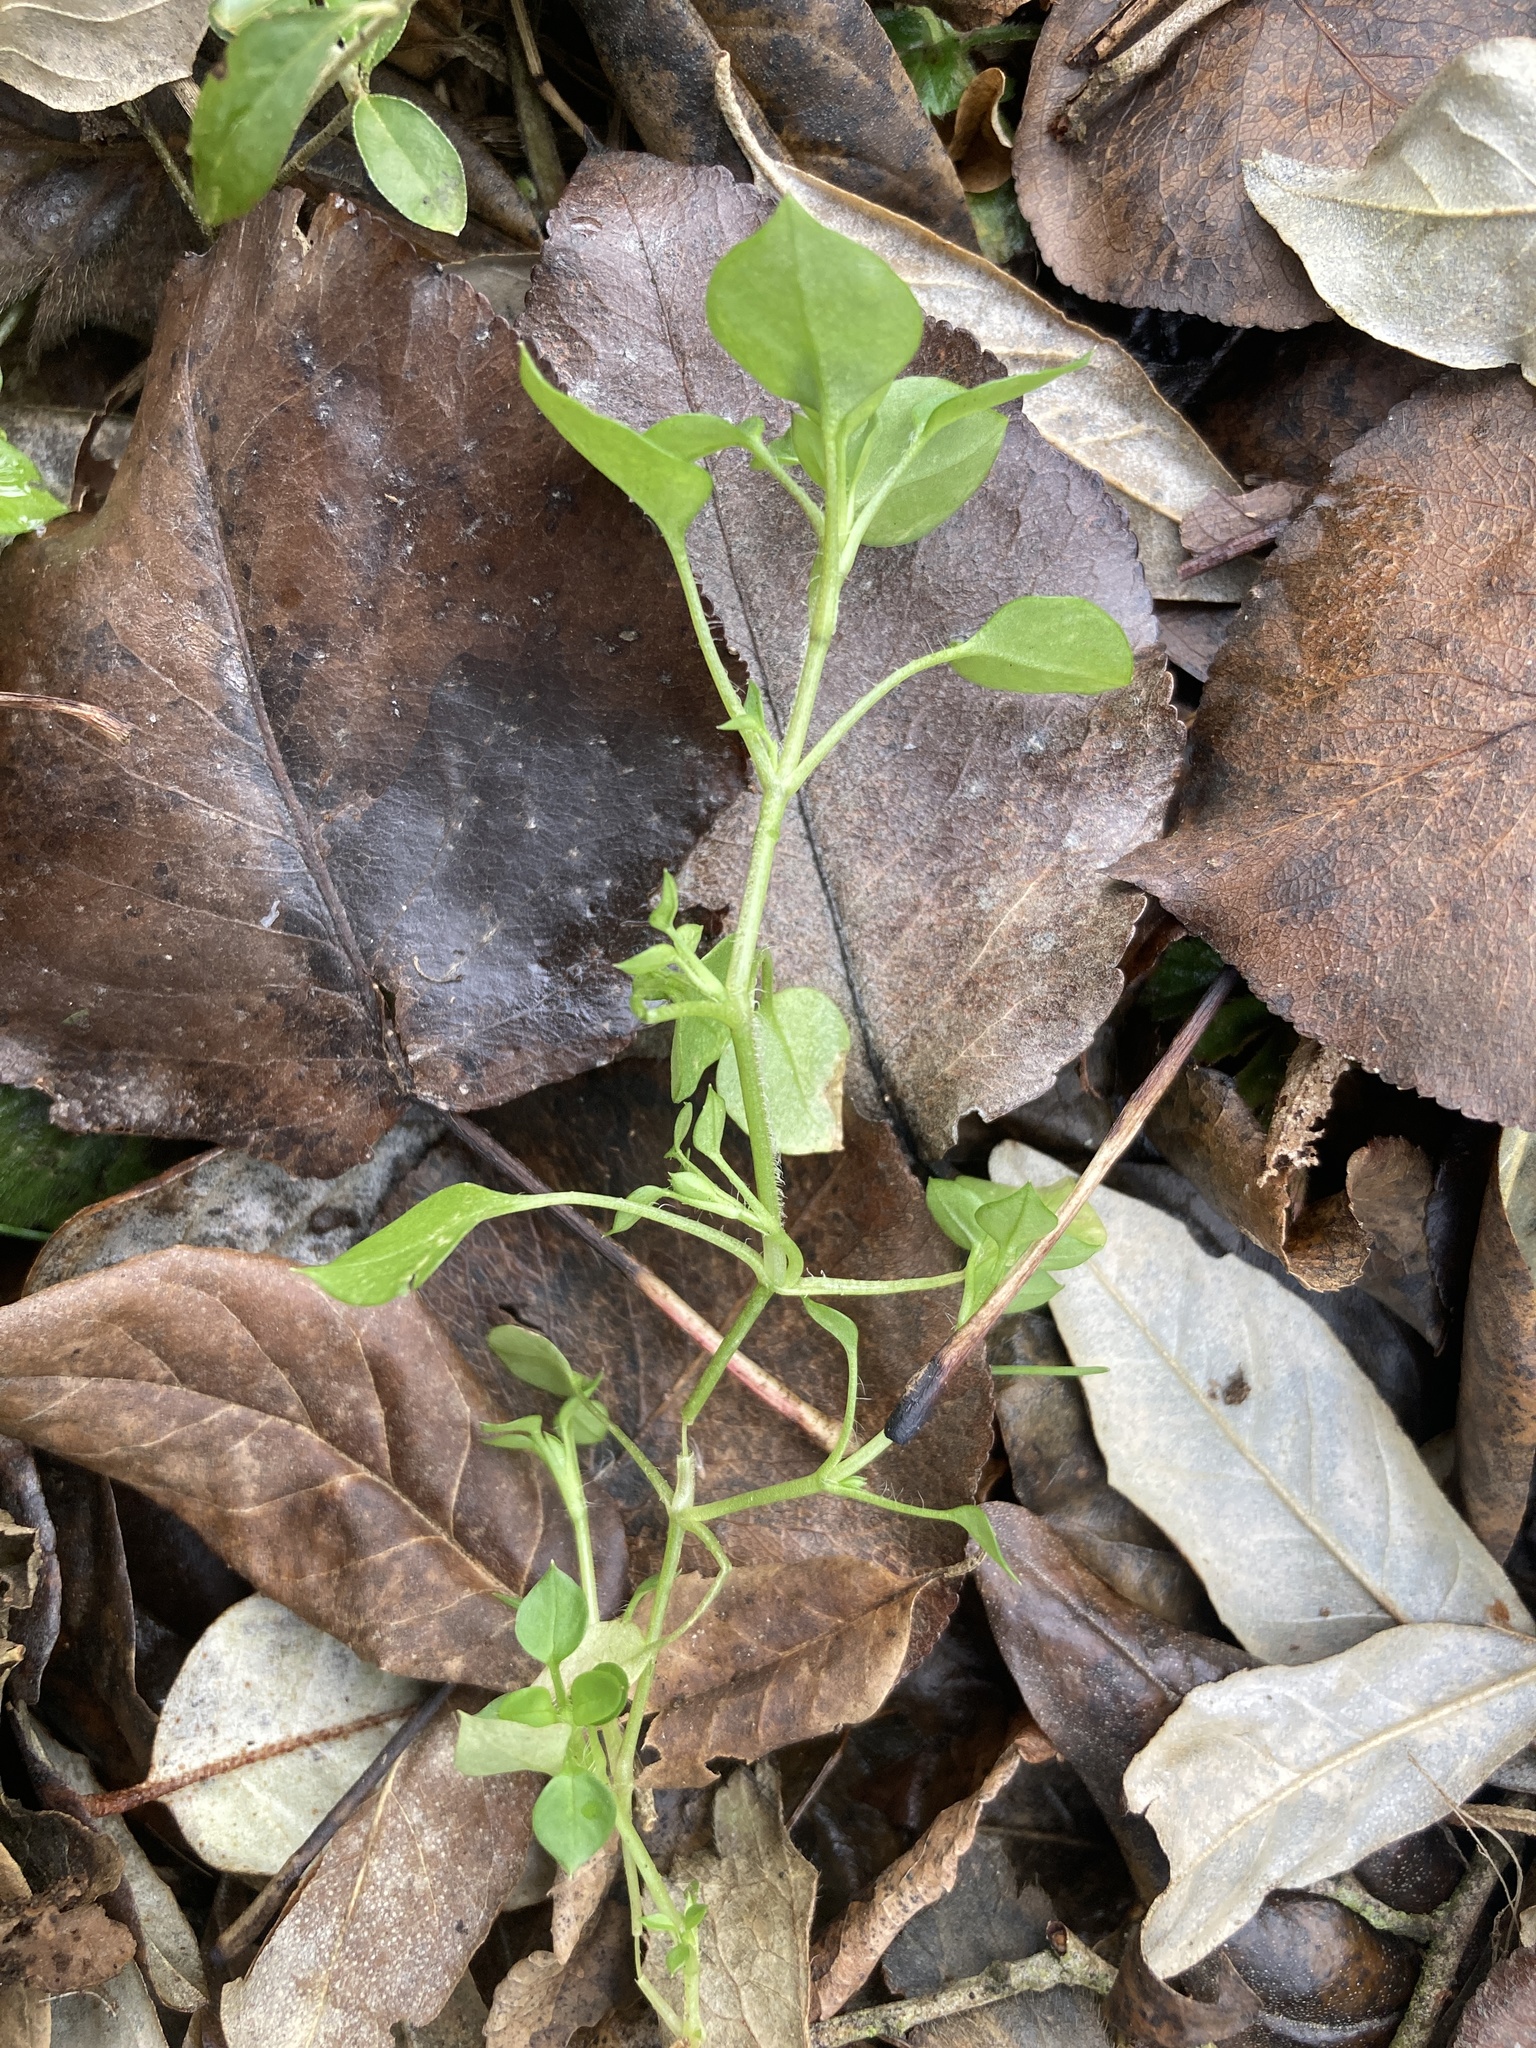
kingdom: Plantae
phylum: Tracheophyta
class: Magnoliopsida
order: Caryophyllales
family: Caryophyllaceae
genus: Stellaria
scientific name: Stellaria media
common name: Common chickweed
